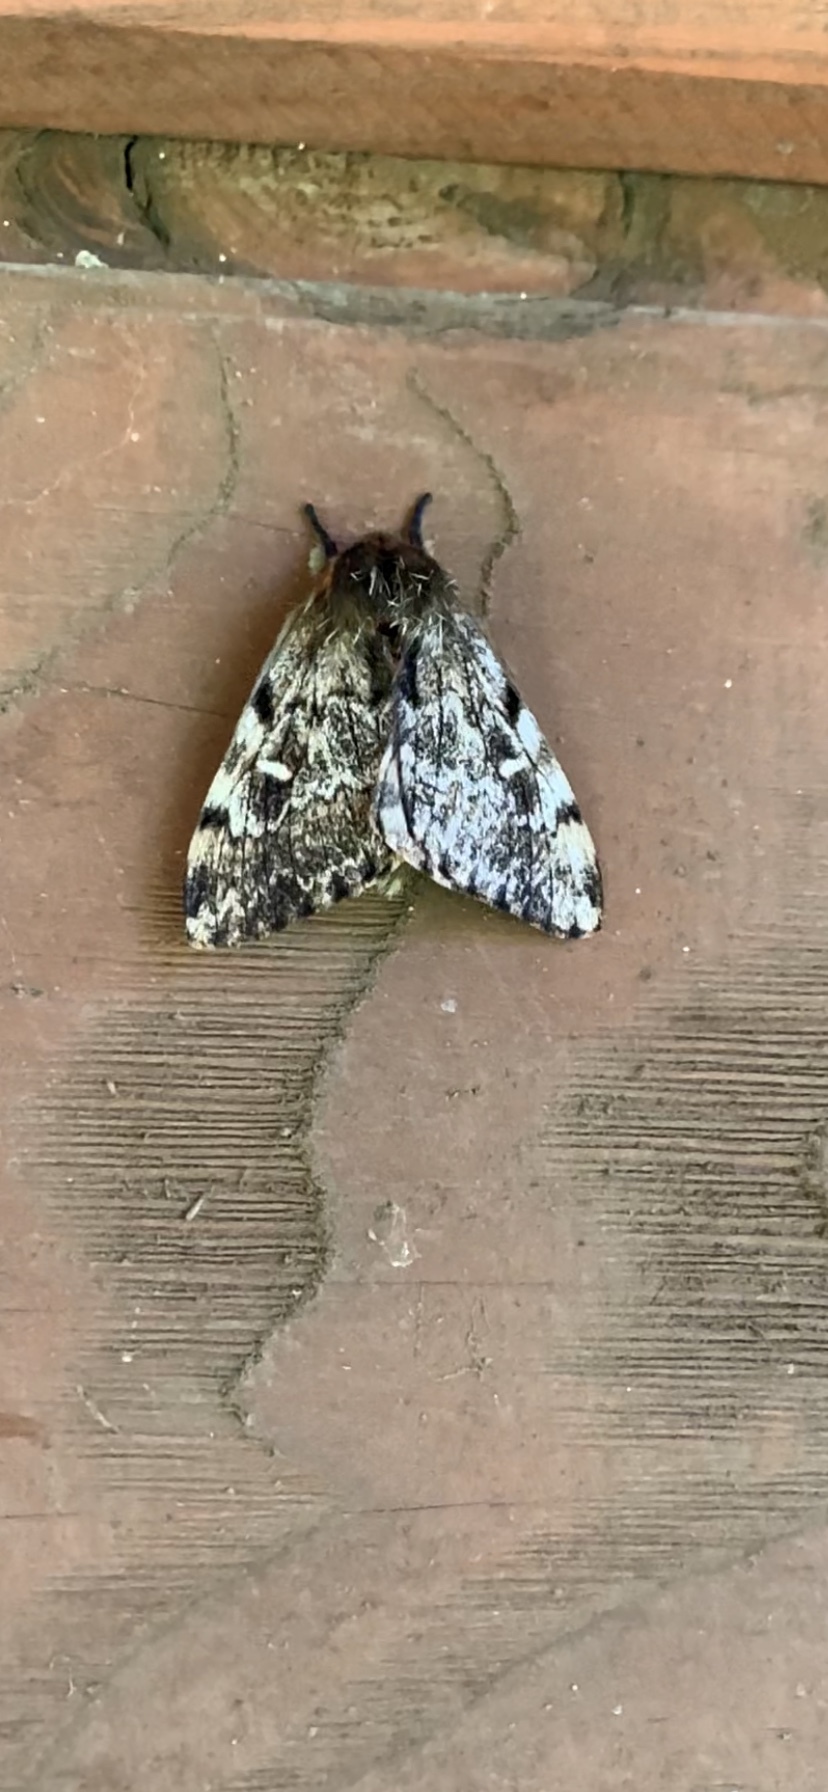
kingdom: Animalia
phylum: Arthropoda
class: Insecta
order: Lepidoptera
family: Saturniidae
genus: Ormiscodes
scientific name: Ormiscodes nigrosignata
